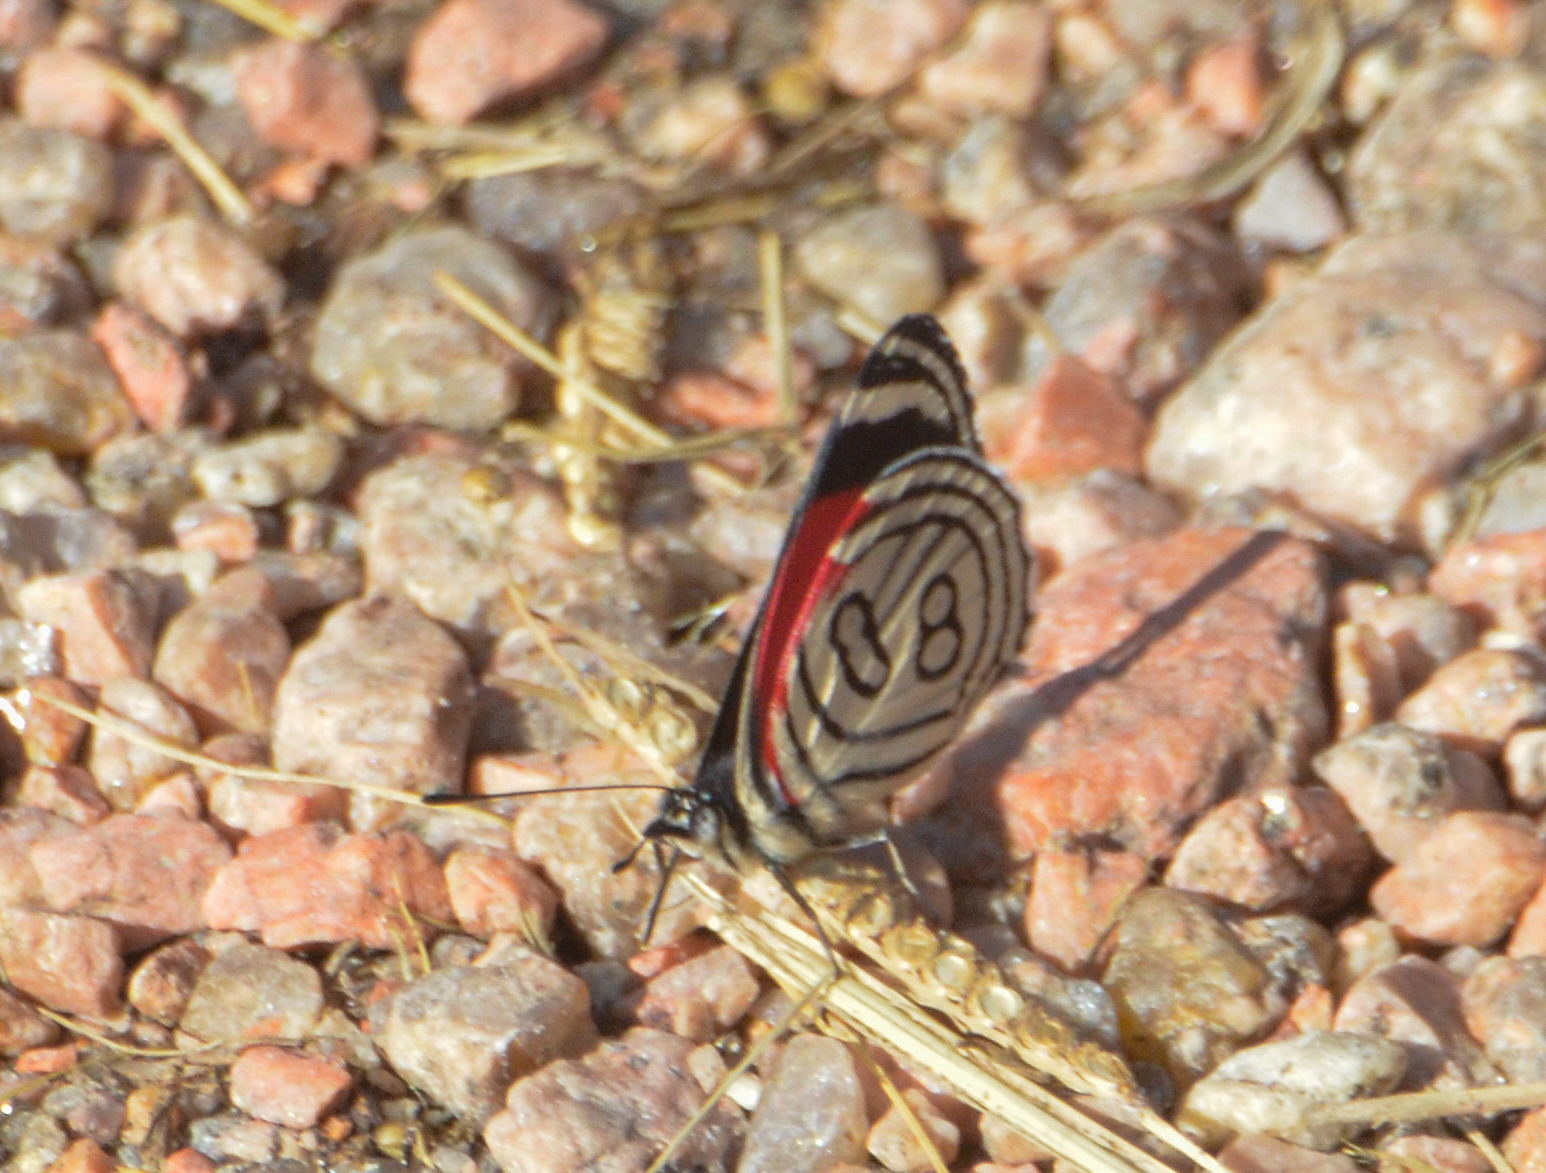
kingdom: Animalia
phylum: Arthropoda
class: Insecta
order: Lepidoptera
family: Nymphalidae
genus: Diaethria
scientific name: Diaethria candrena
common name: Number eighty
